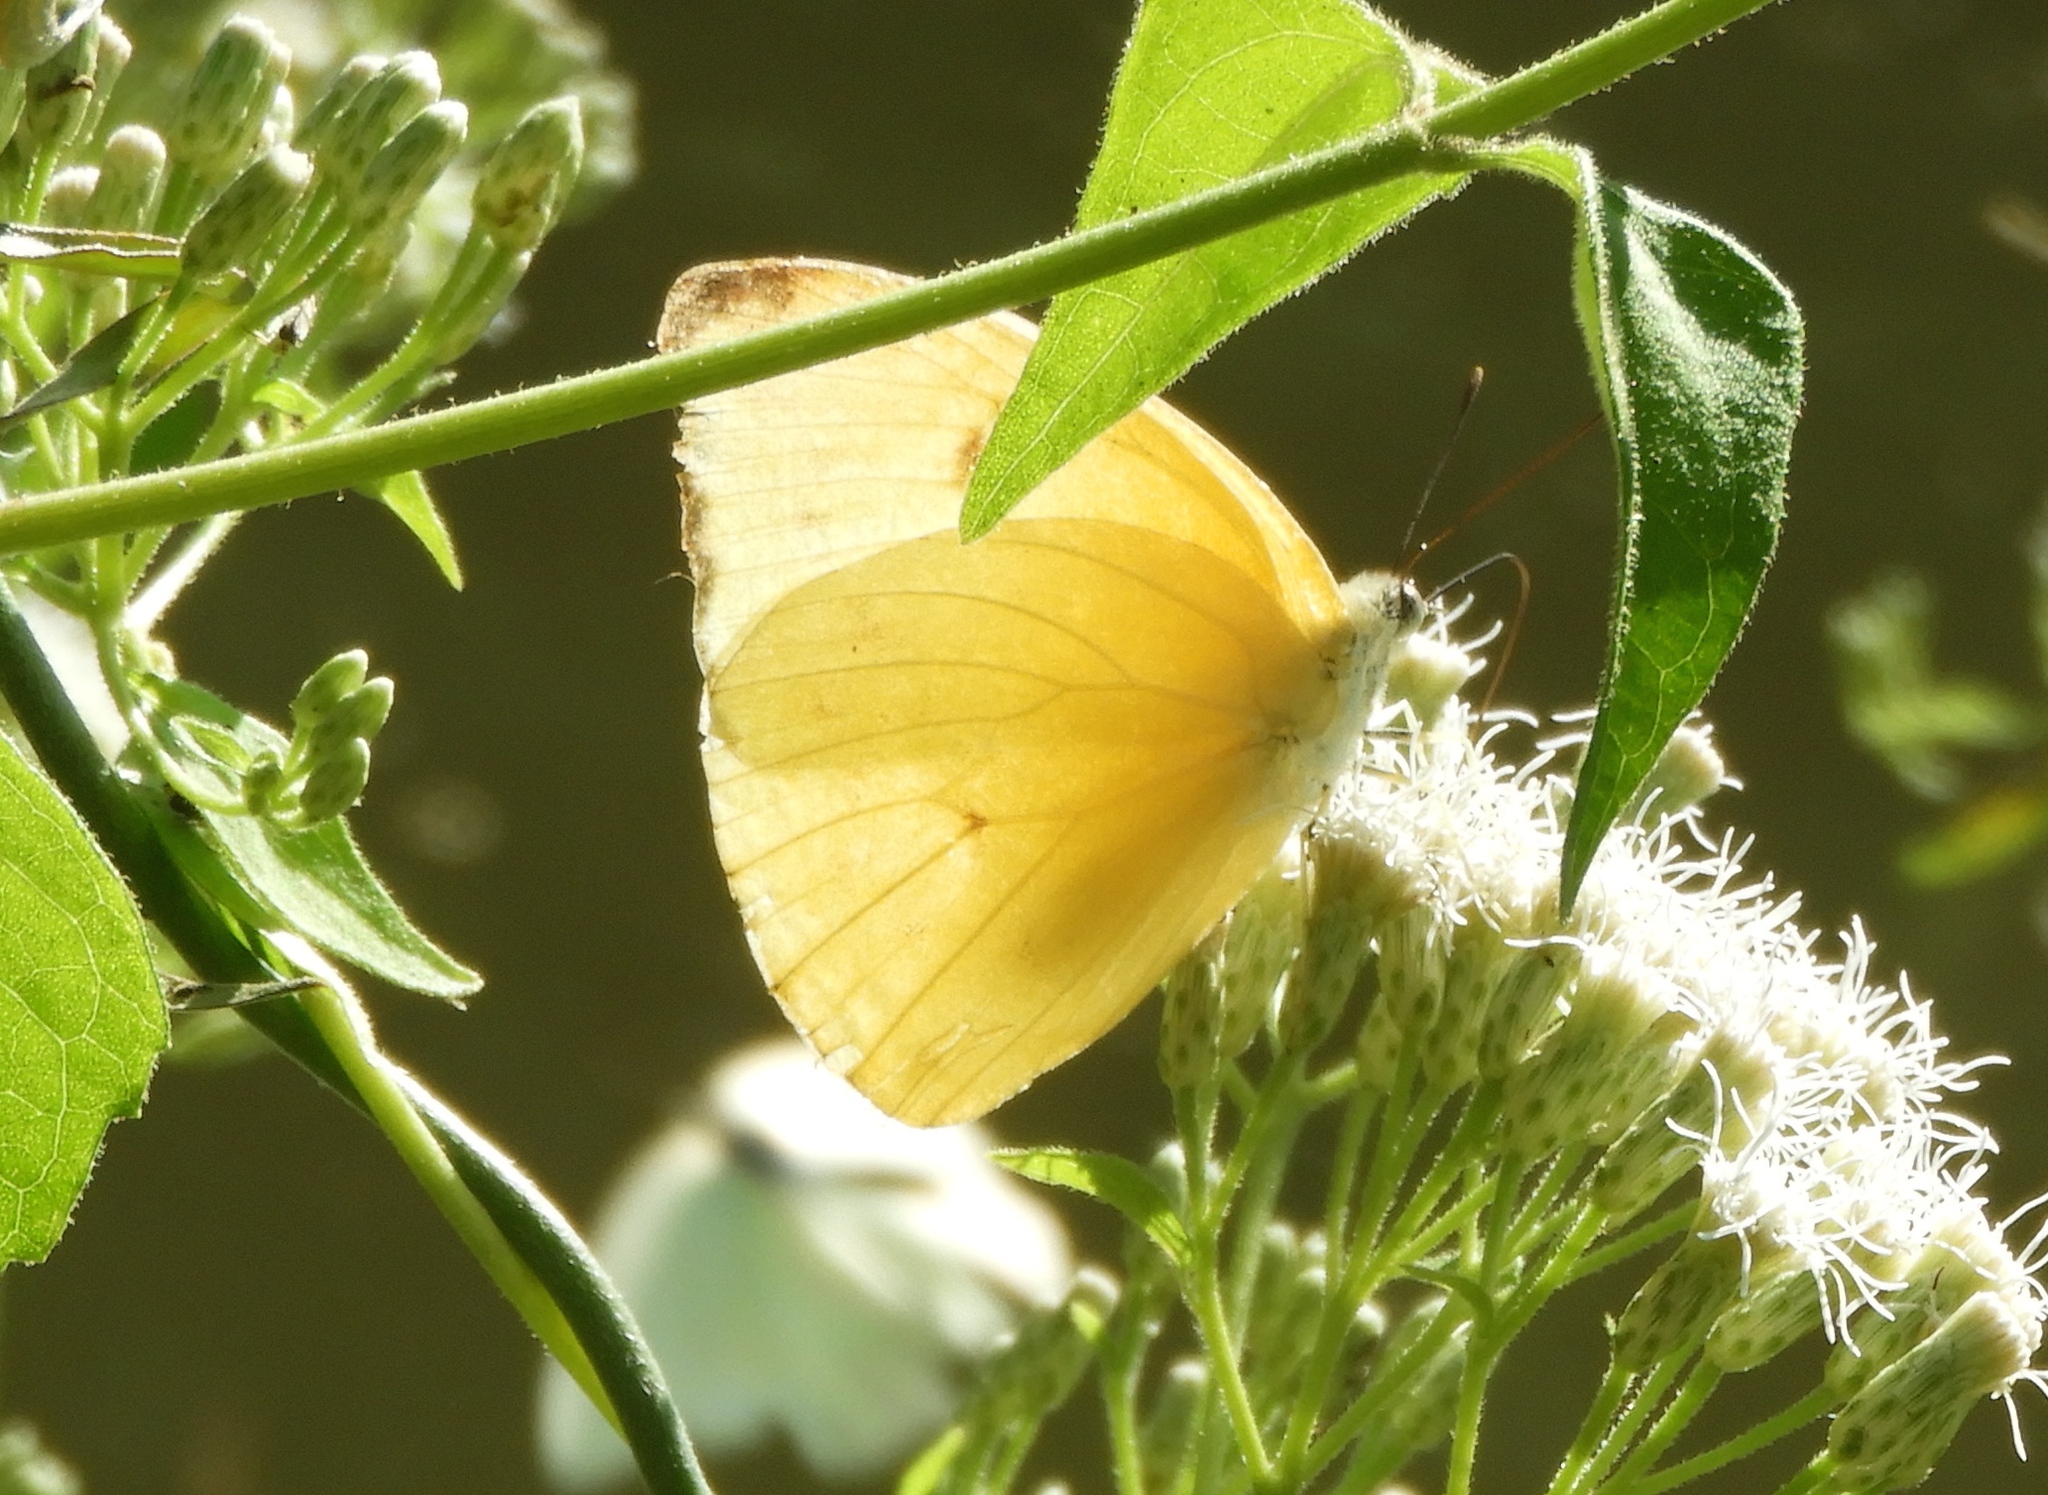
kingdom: Animalia
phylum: Arthropoda
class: Insecta
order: Lepidoptera
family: Pieridae
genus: Aphrissa
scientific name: Aphrissa statira
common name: Statira sulphur
